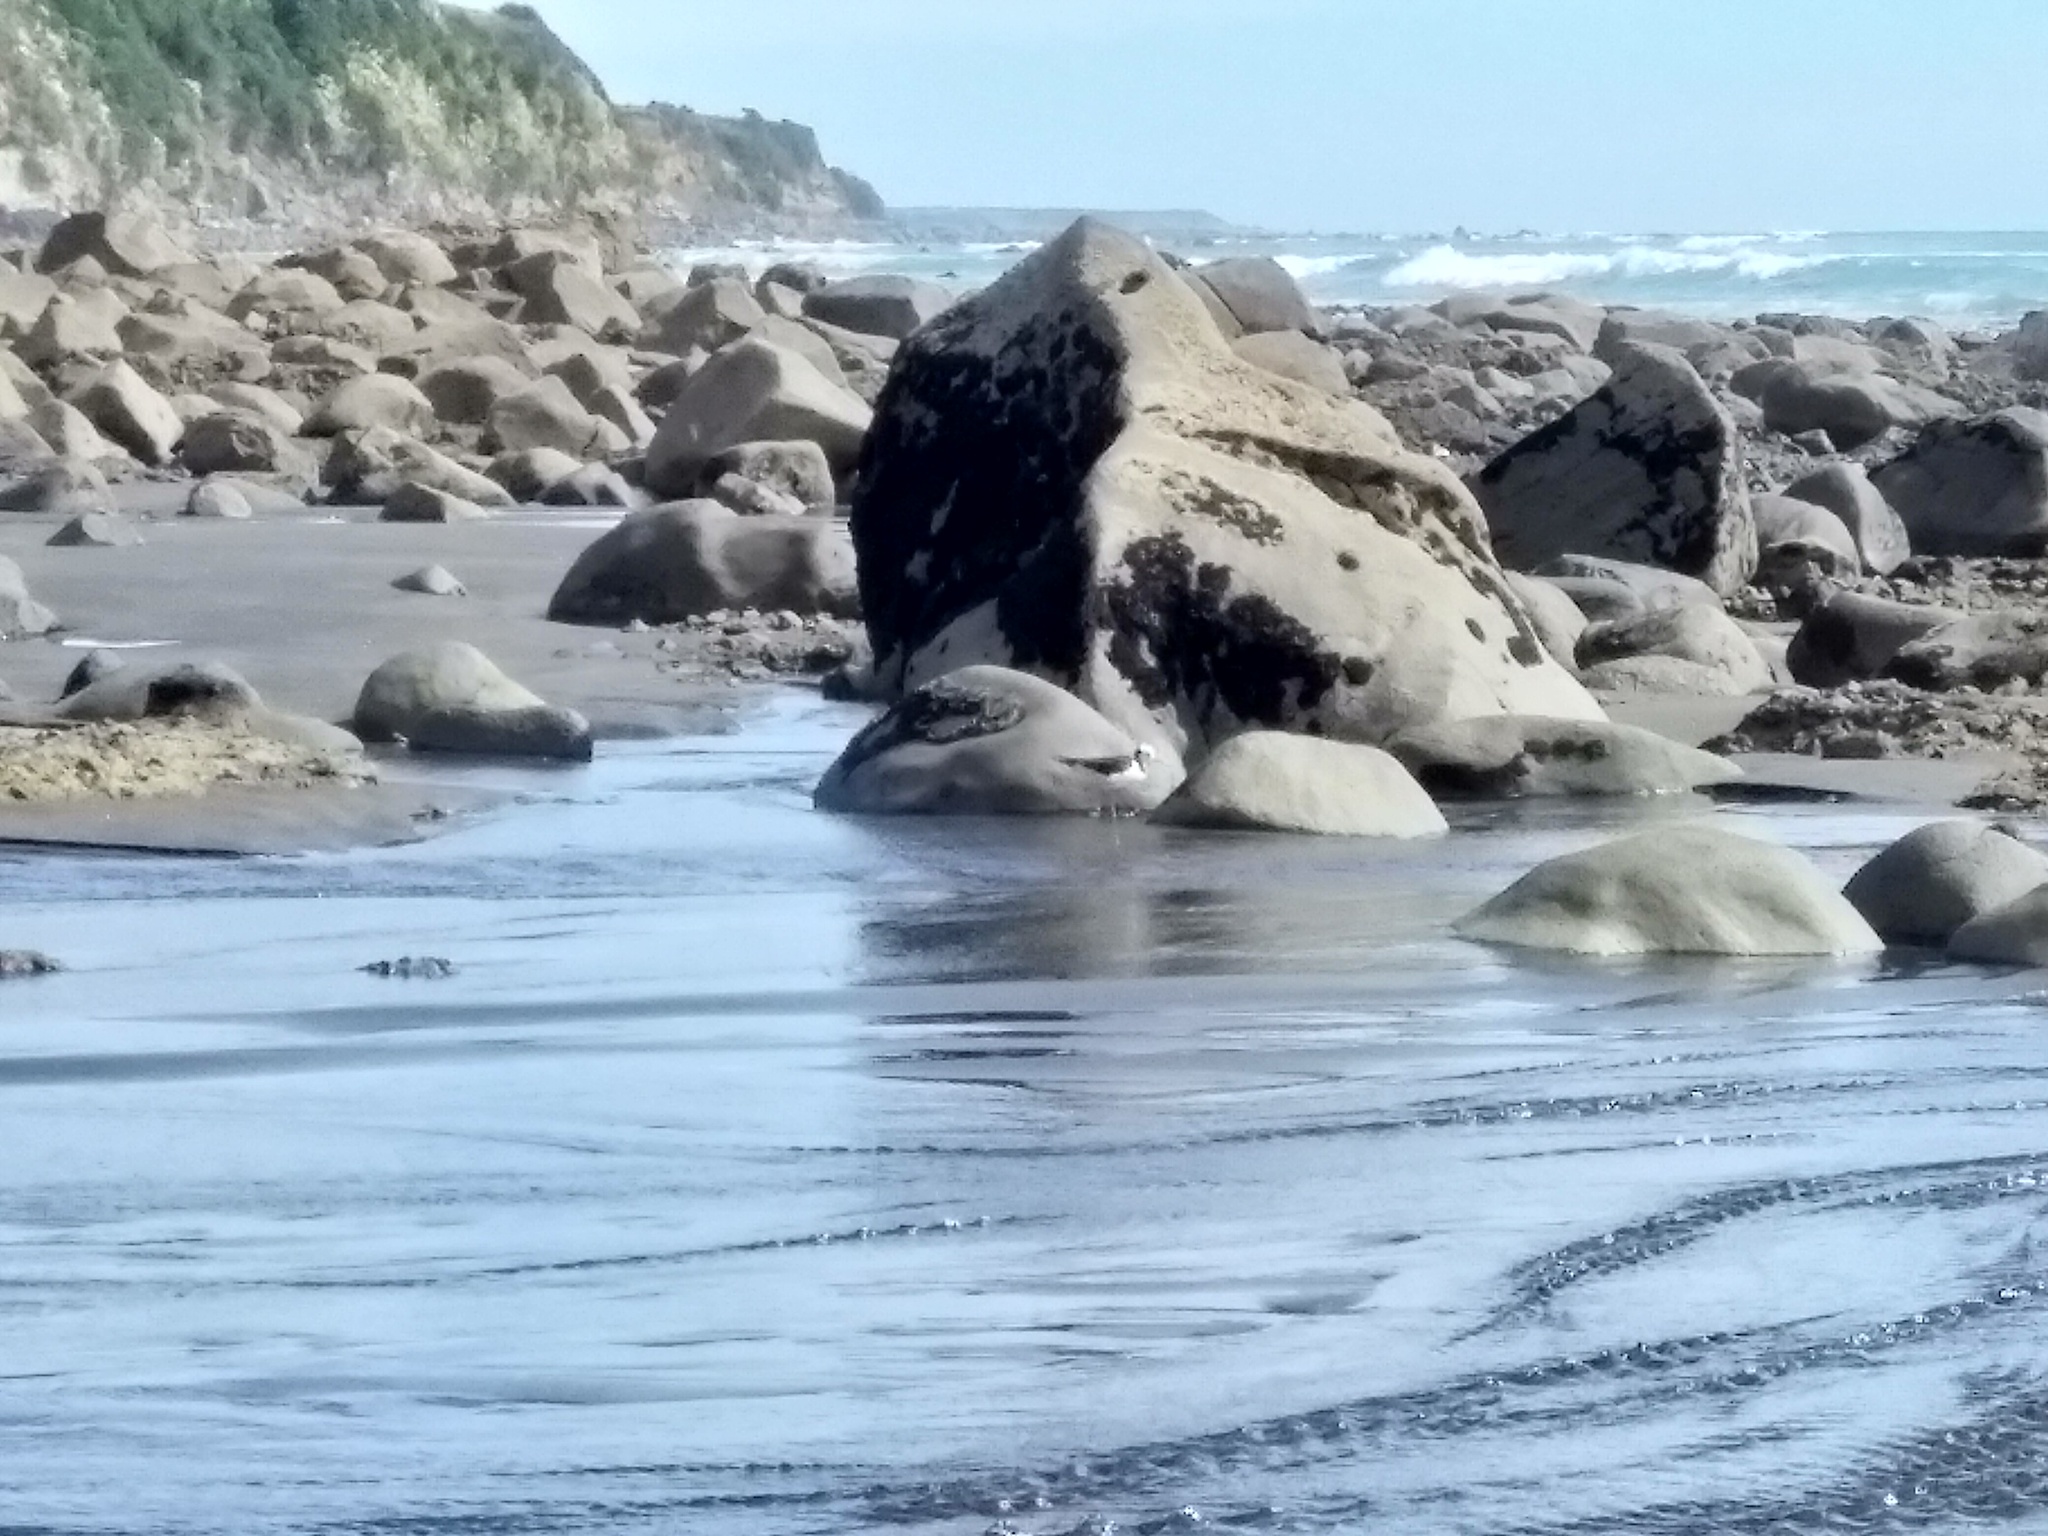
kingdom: Animalia
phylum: Chordata
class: Aves
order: Charadriiformes
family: Recurvirostridae
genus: Himantopus
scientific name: Himantopus leucocephalus
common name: White-headed stilt
